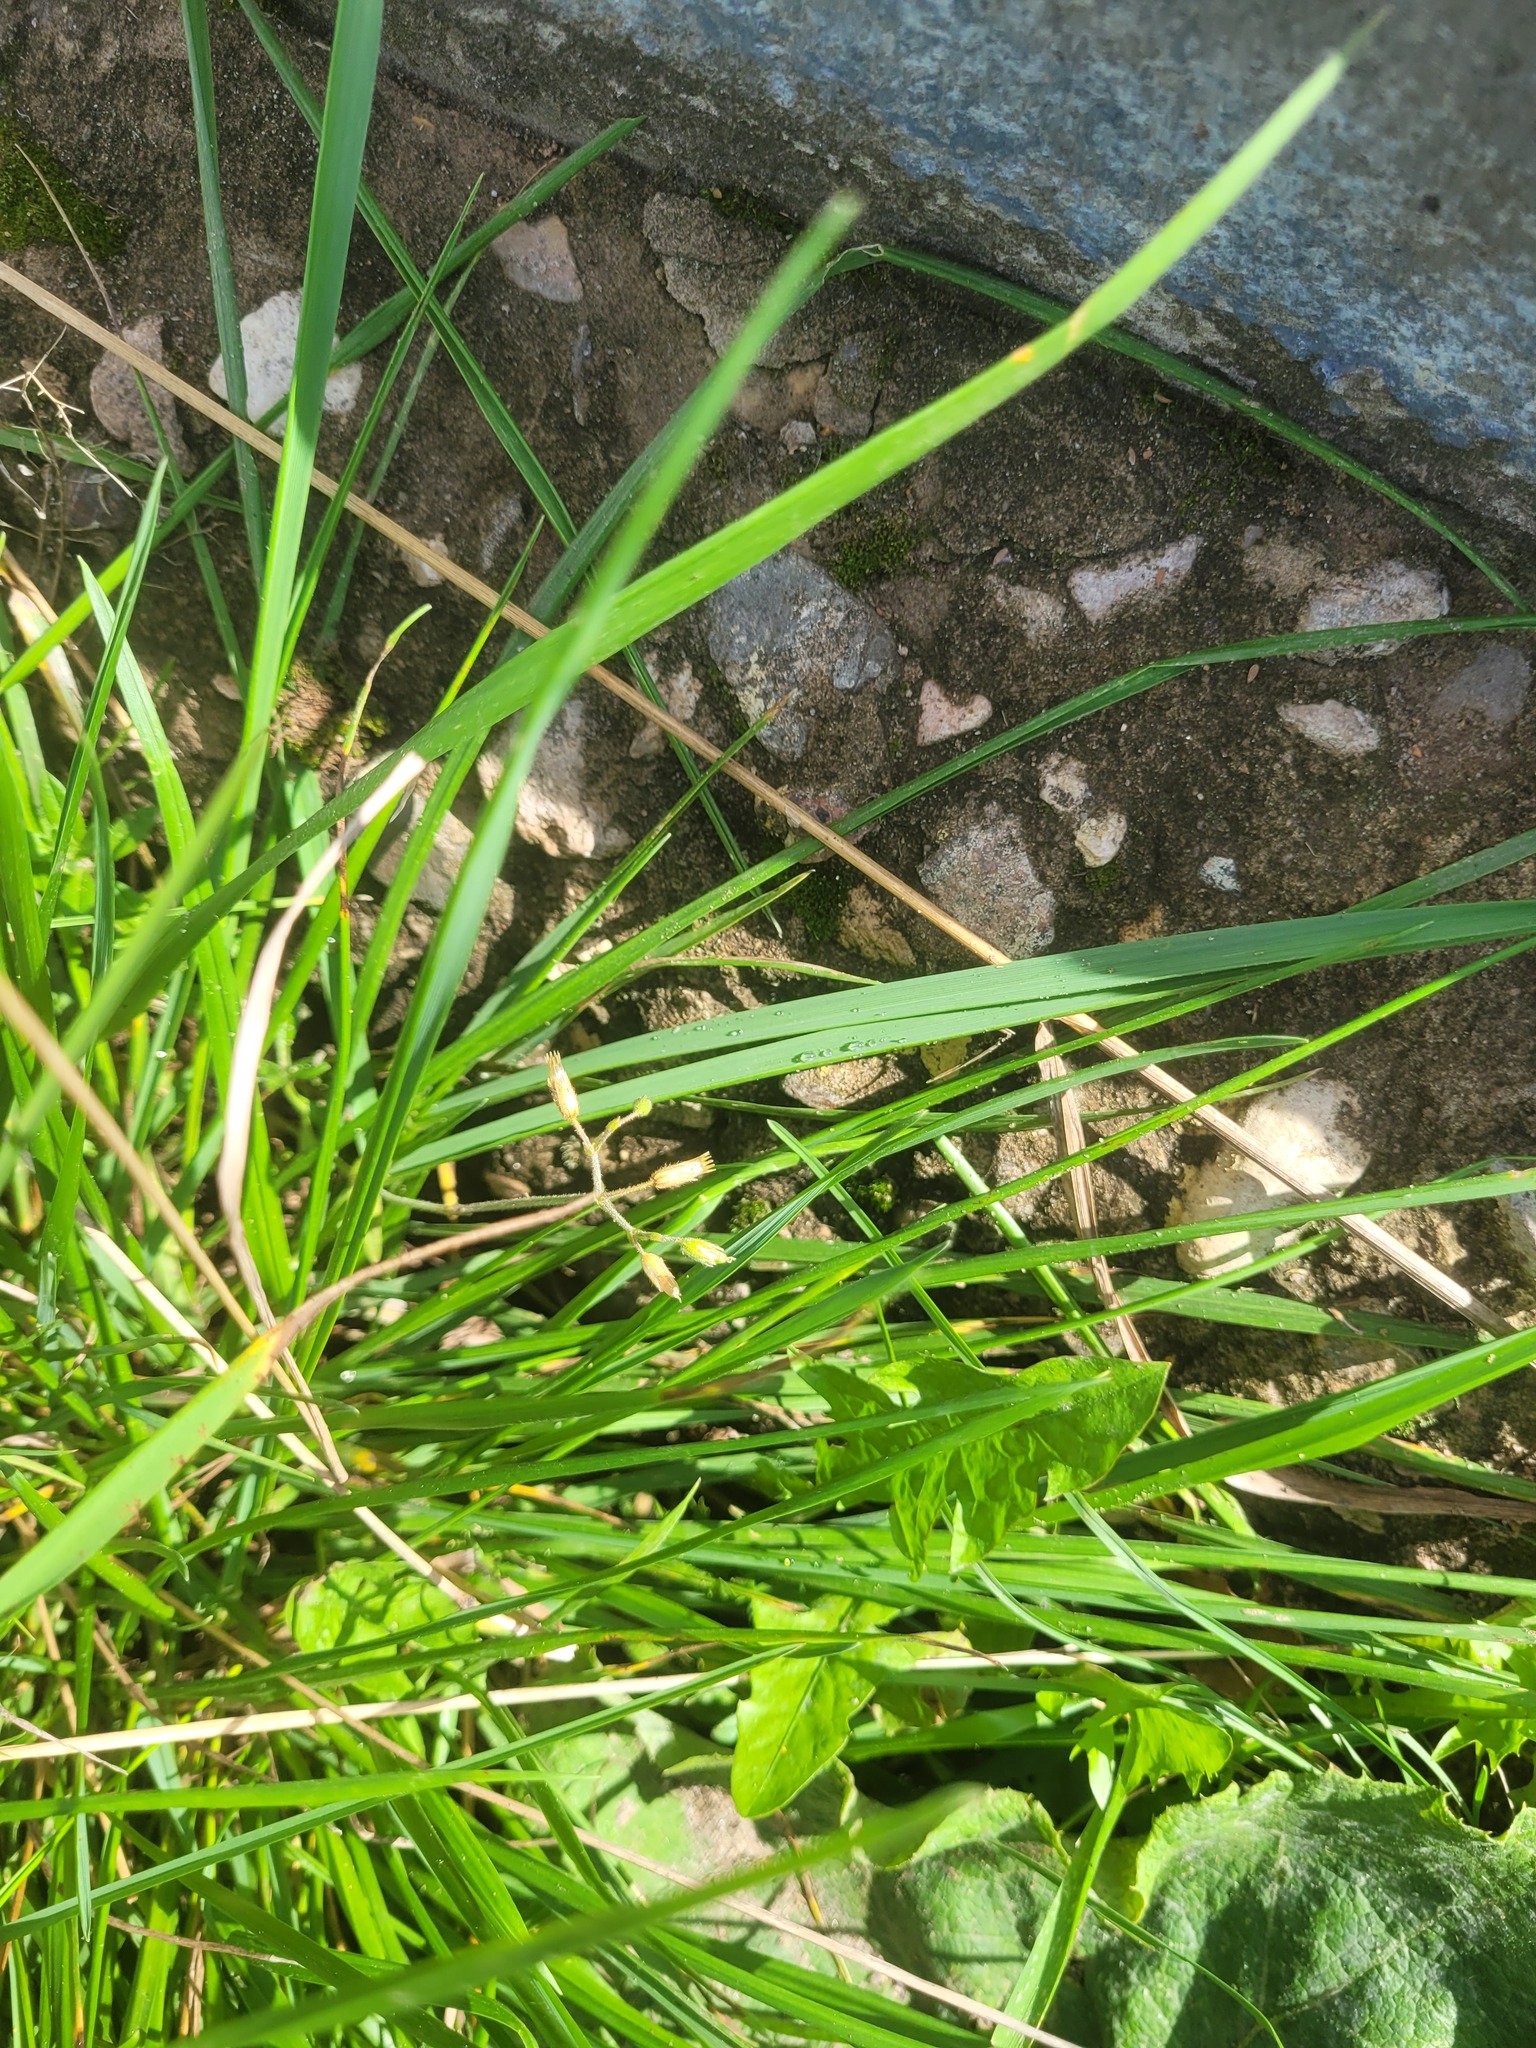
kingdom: Plantae
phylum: Tracheophyta
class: Magnoliopsida
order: Caryophyllales
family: Caryophyllaceae
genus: Cerastium
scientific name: Cerastium holosteoides
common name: Big chickweed
